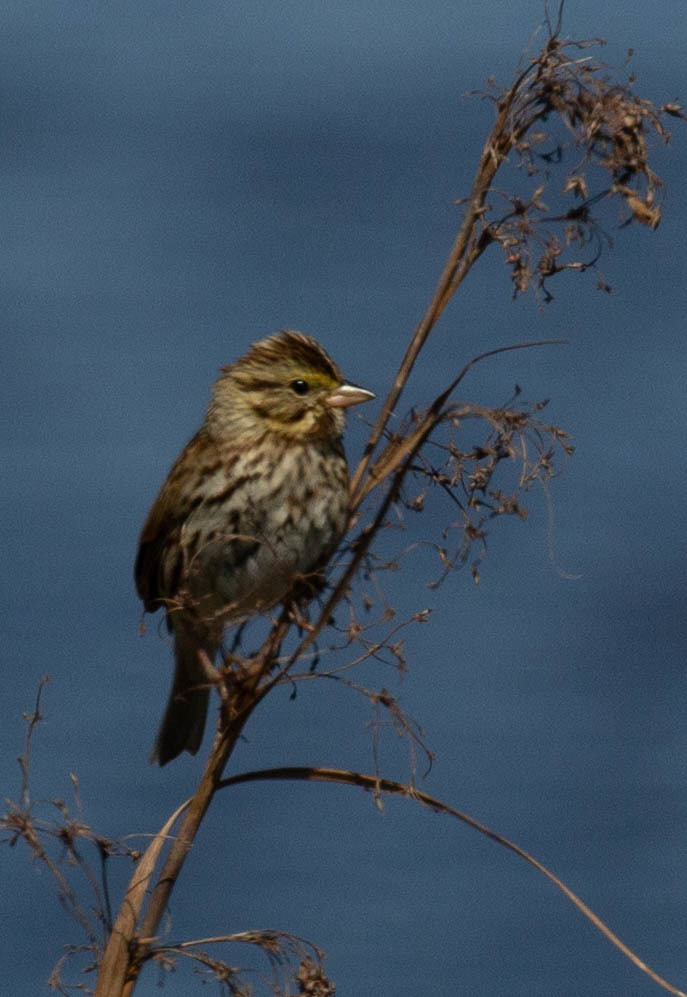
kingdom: Animalia
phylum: Chordata
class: Aves
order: Passeriformes
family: Passerellidae
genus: Passerculus
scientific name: Passerculus sandwichensis
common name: Savannah sparrow
